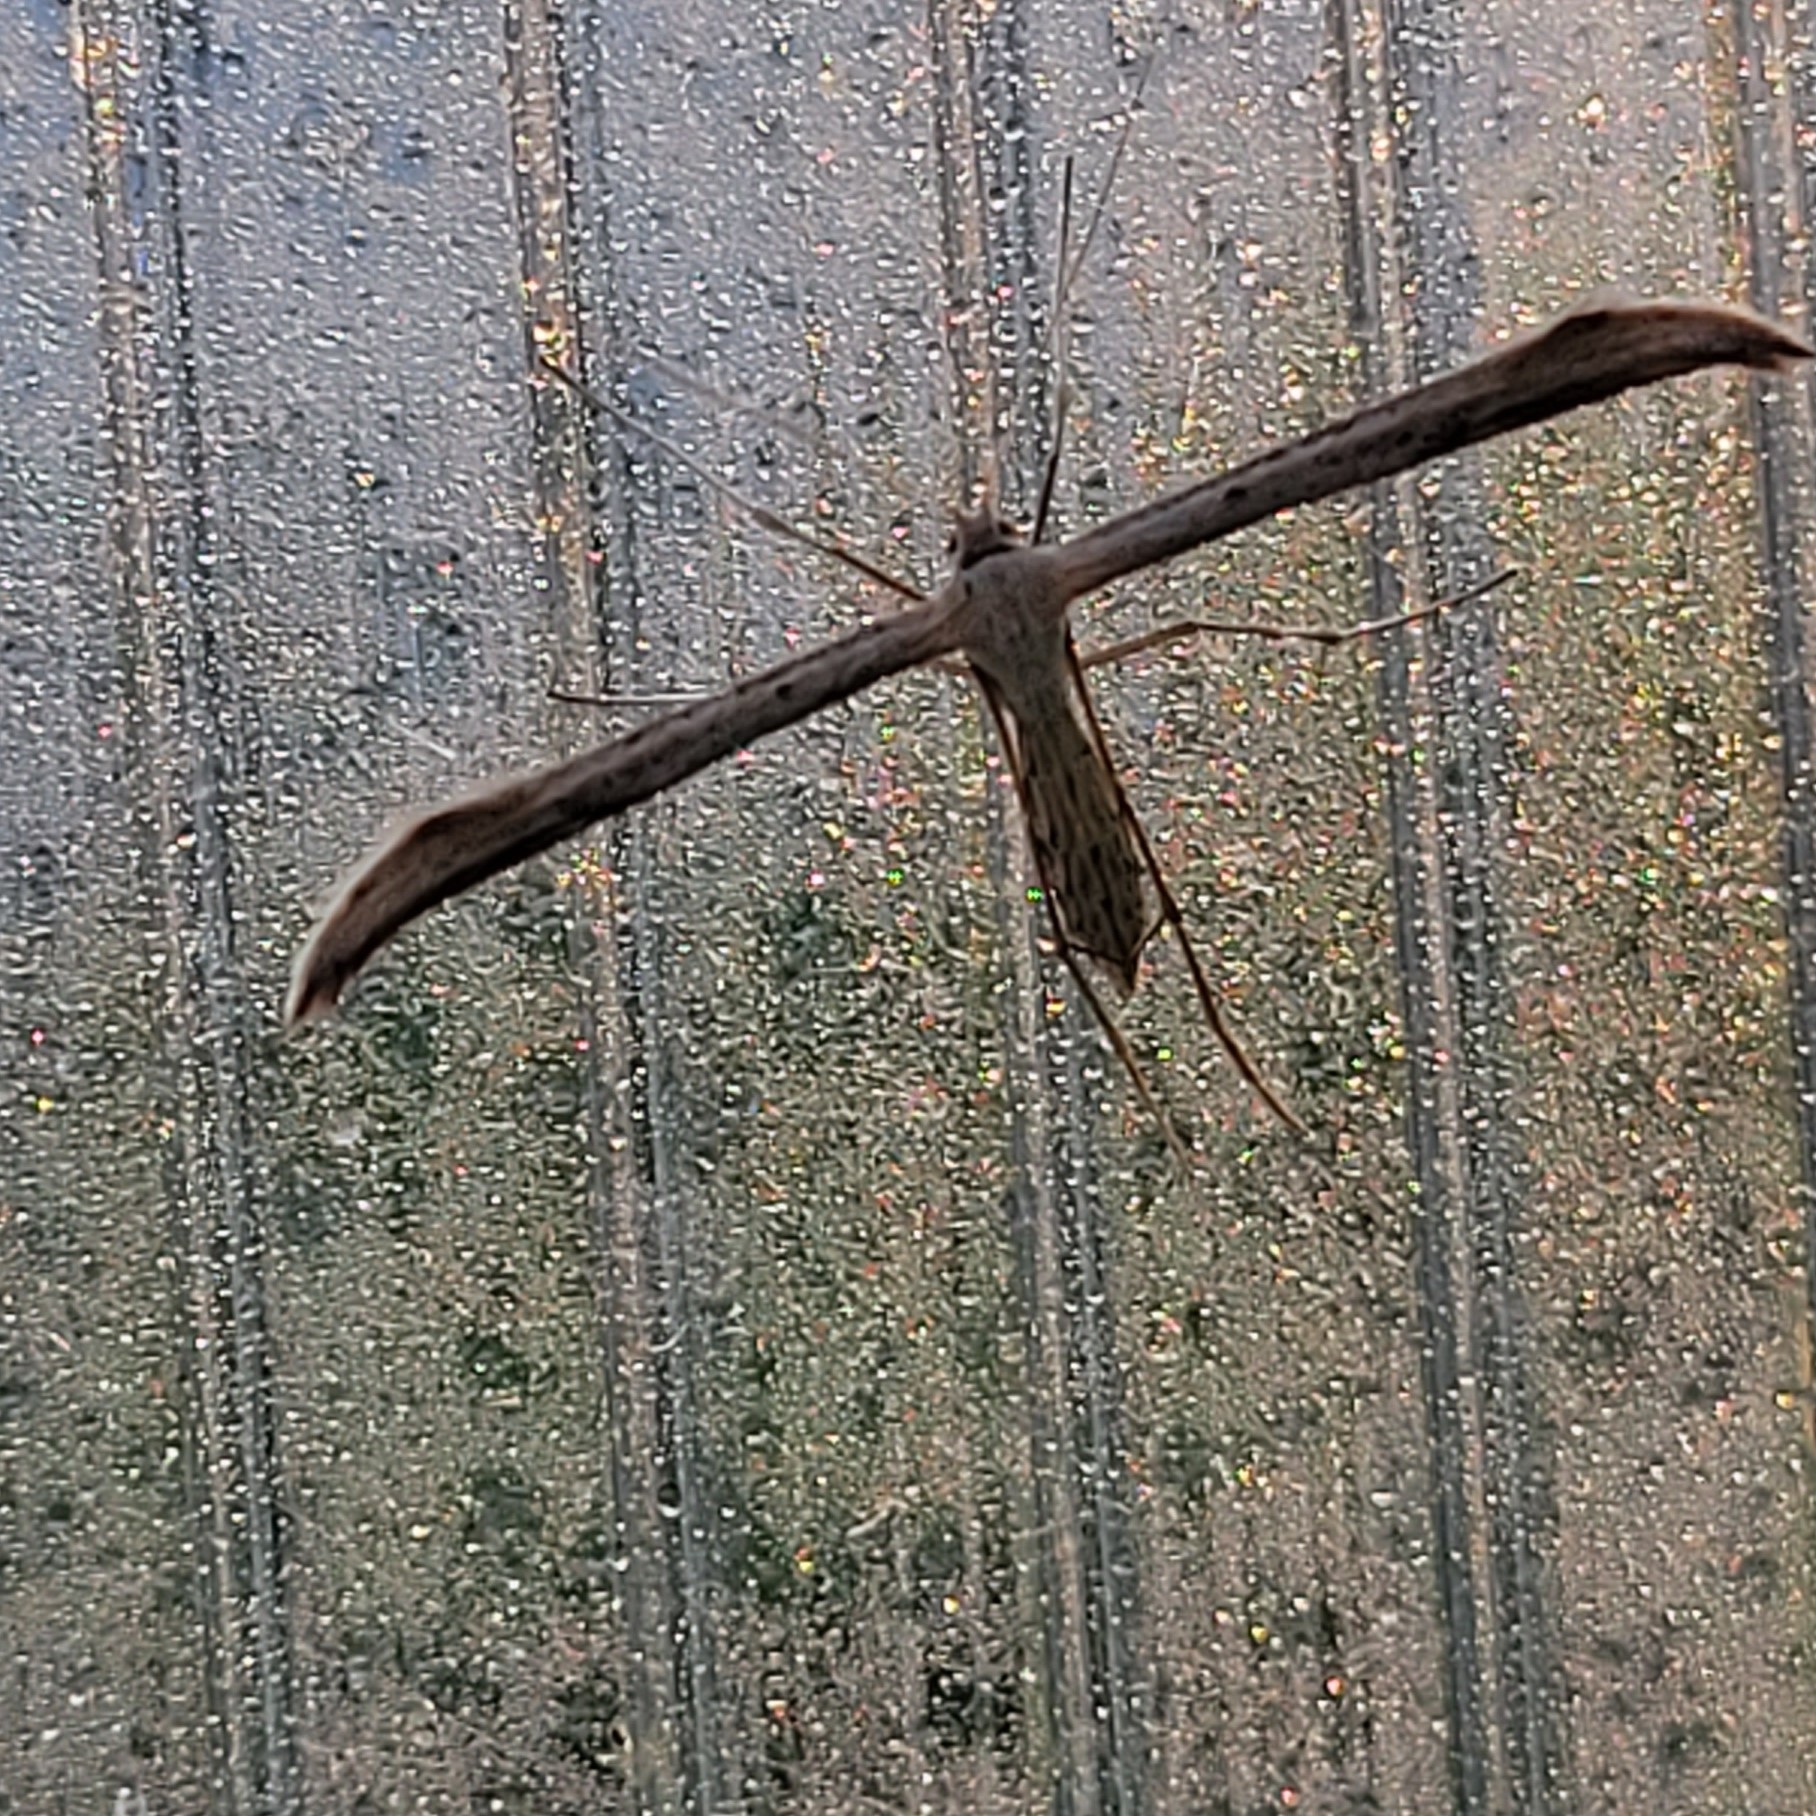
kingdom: Animalia
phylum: Arthropoda
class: Insecta
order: Lepidoptera
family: Pterophoridae
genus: Emmelina
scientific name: Emmelina monodactyla
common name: Common plume
